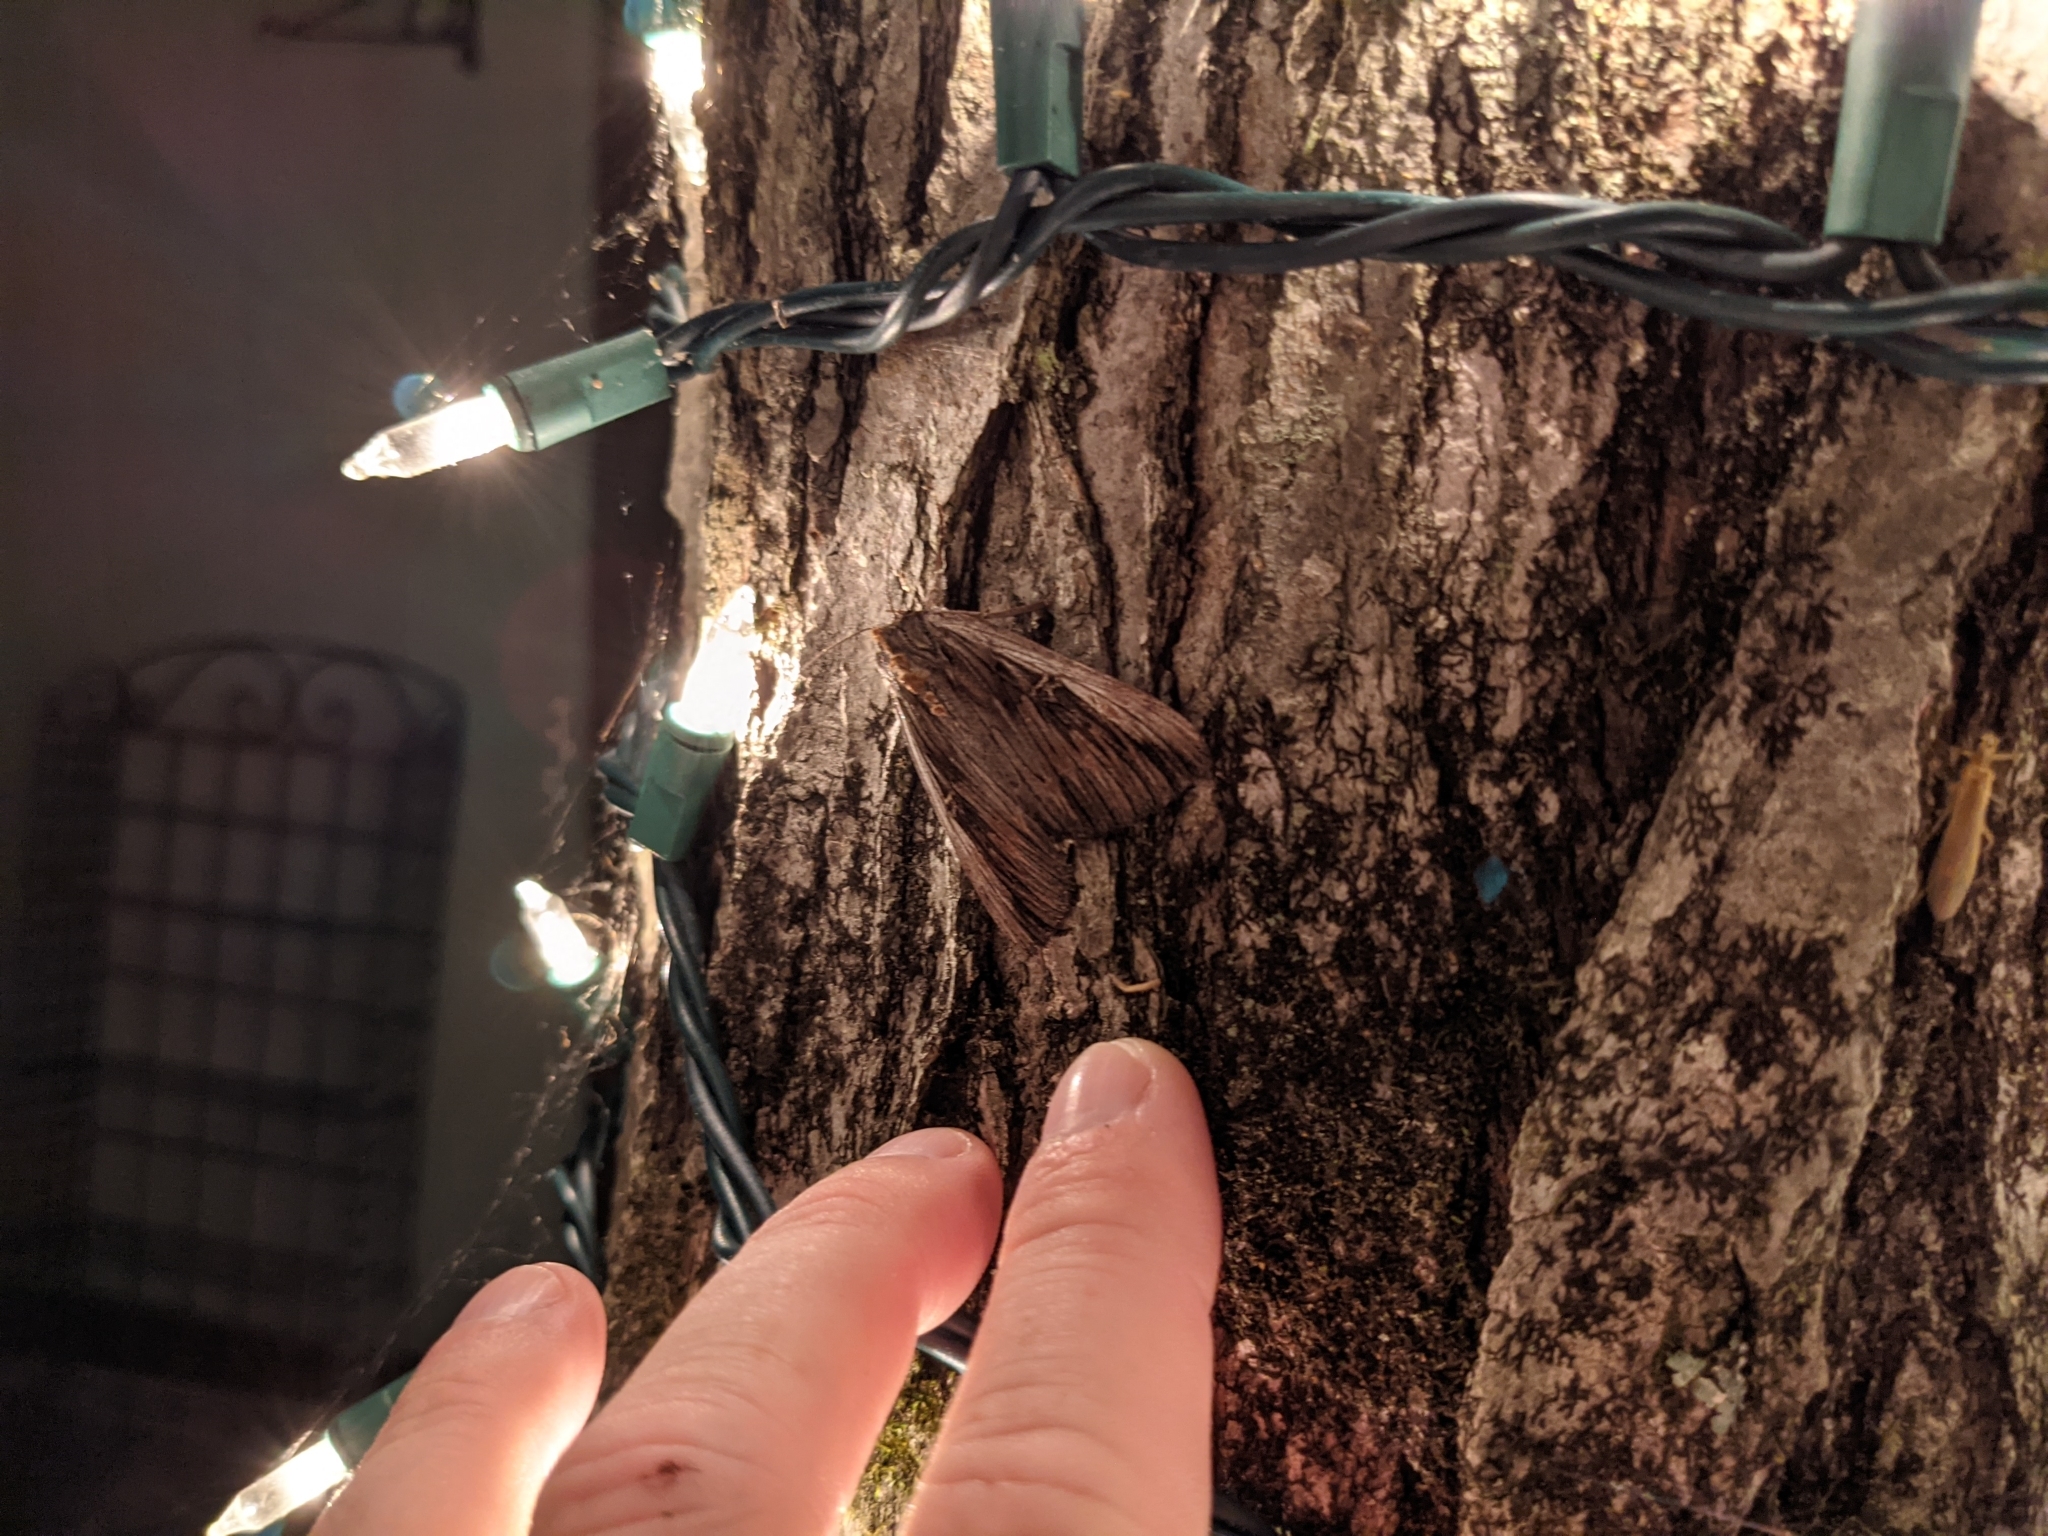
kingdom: Animalia
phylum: Arthropoda
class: Insecta
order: Lepidoptera
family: Erebidae
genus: Catocala
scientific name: Catocala herodias
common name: Pine barrens underwing
